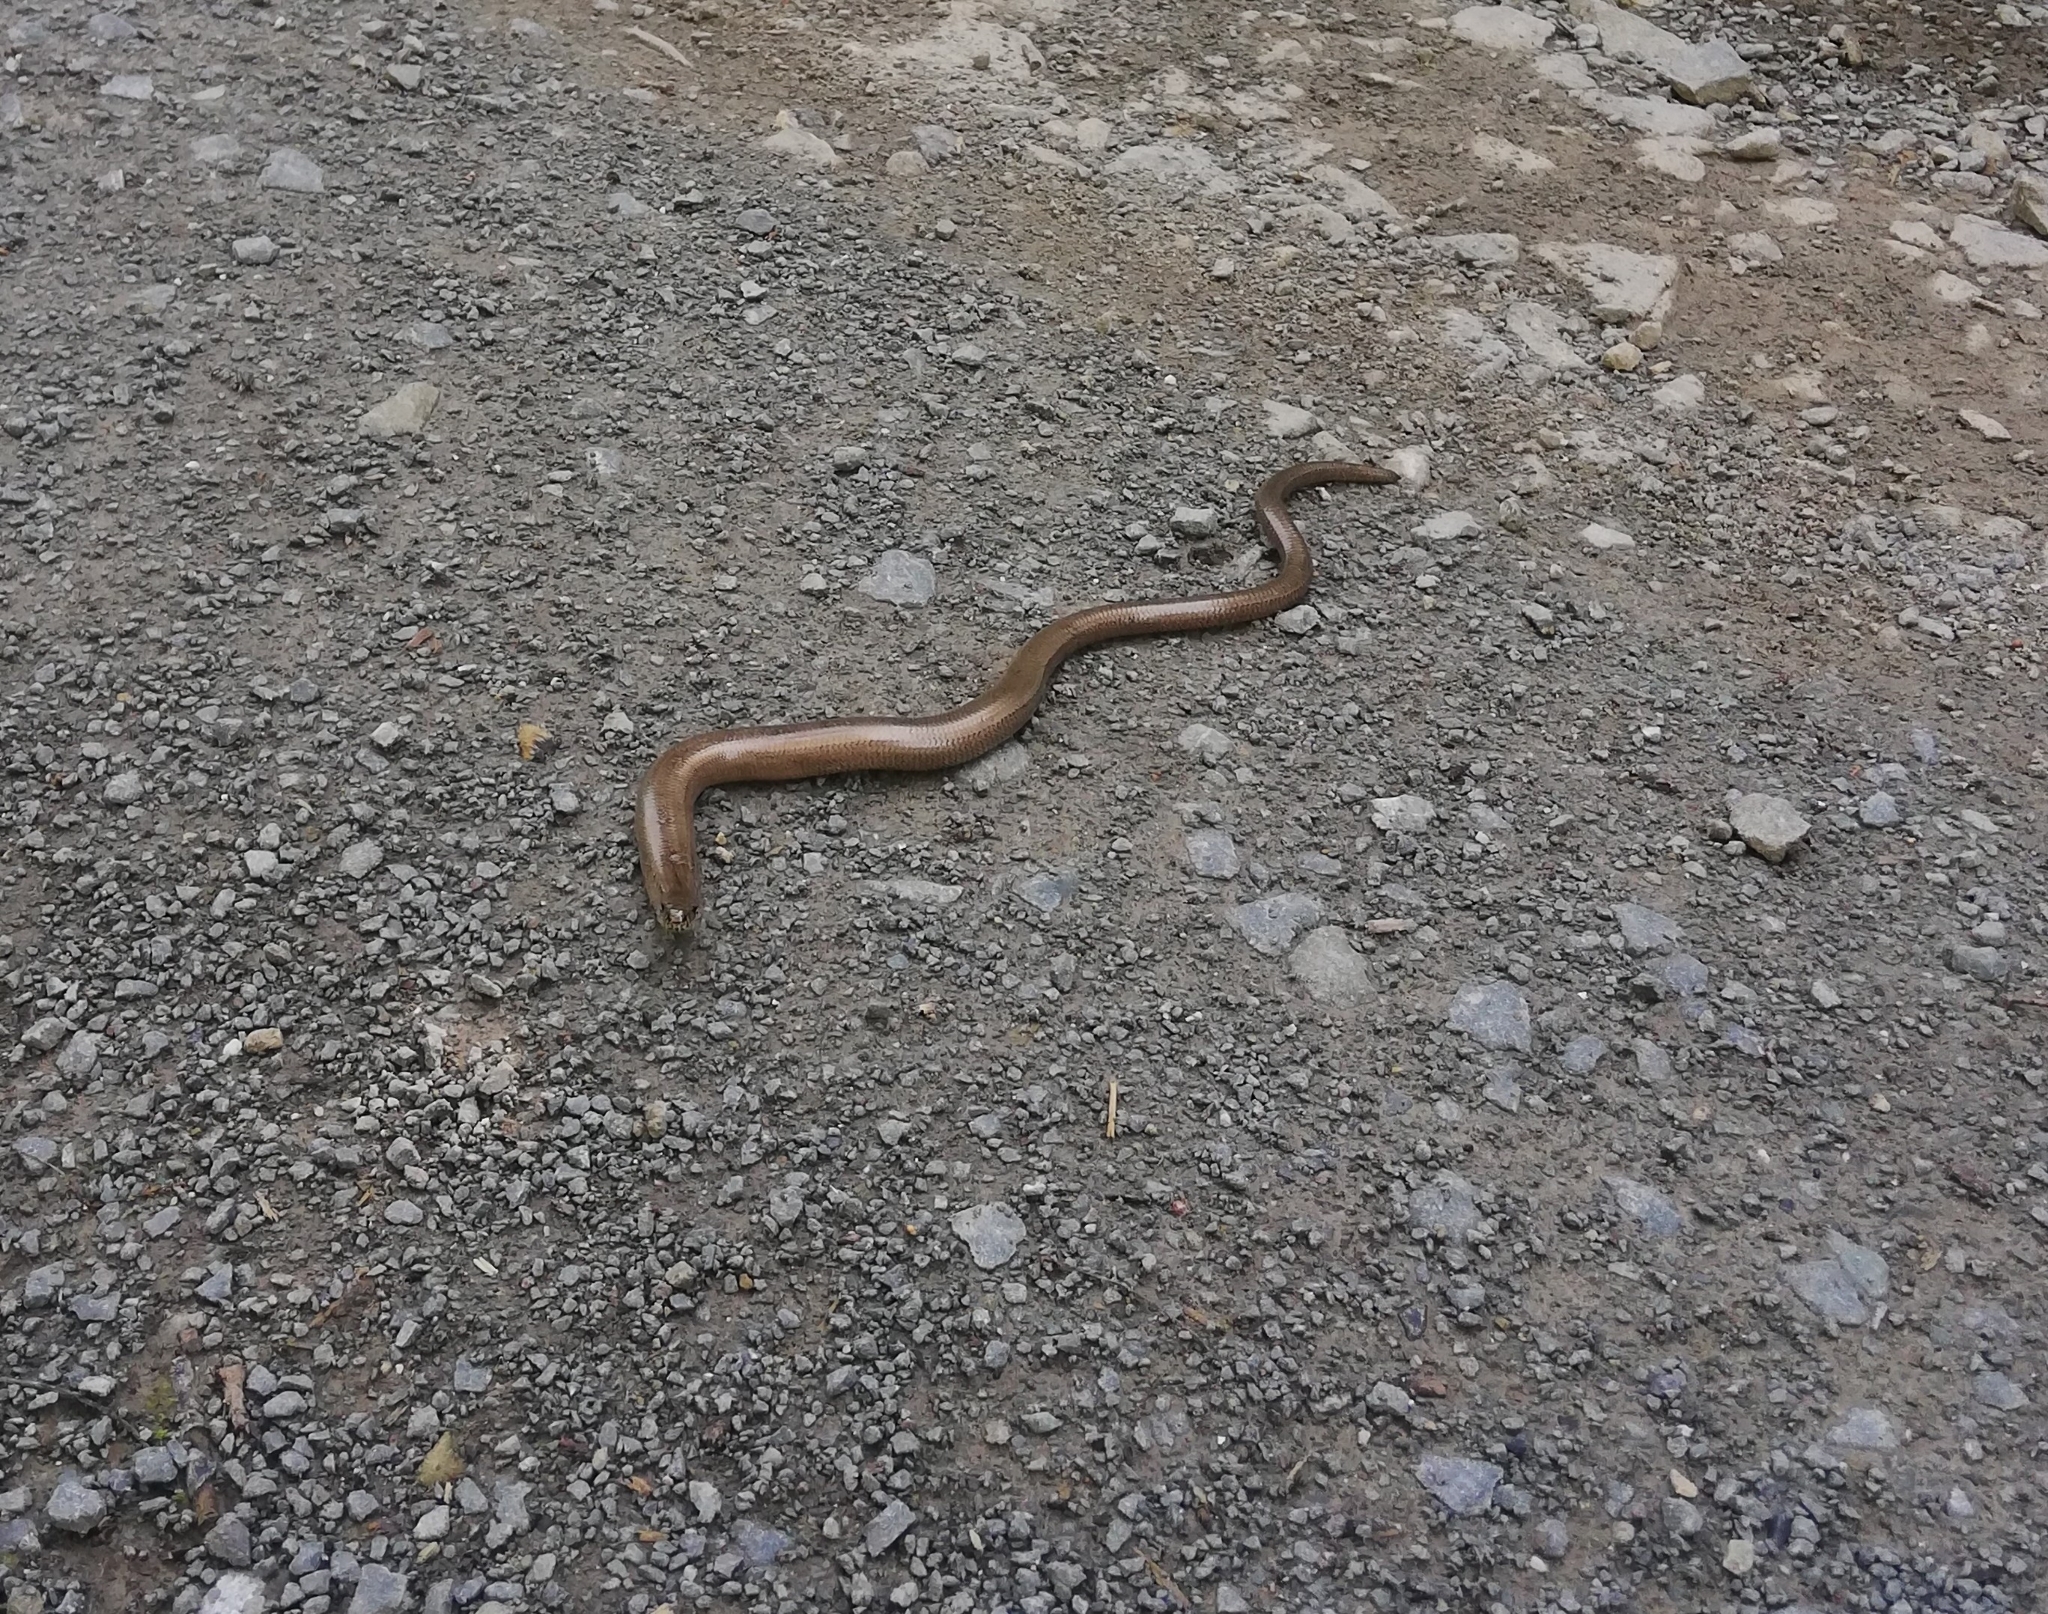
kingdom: Animalia
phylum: Chordata
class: Squamata
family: Anguidae
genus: Anguis
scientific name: Anguis fragilis
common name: Slow worm
